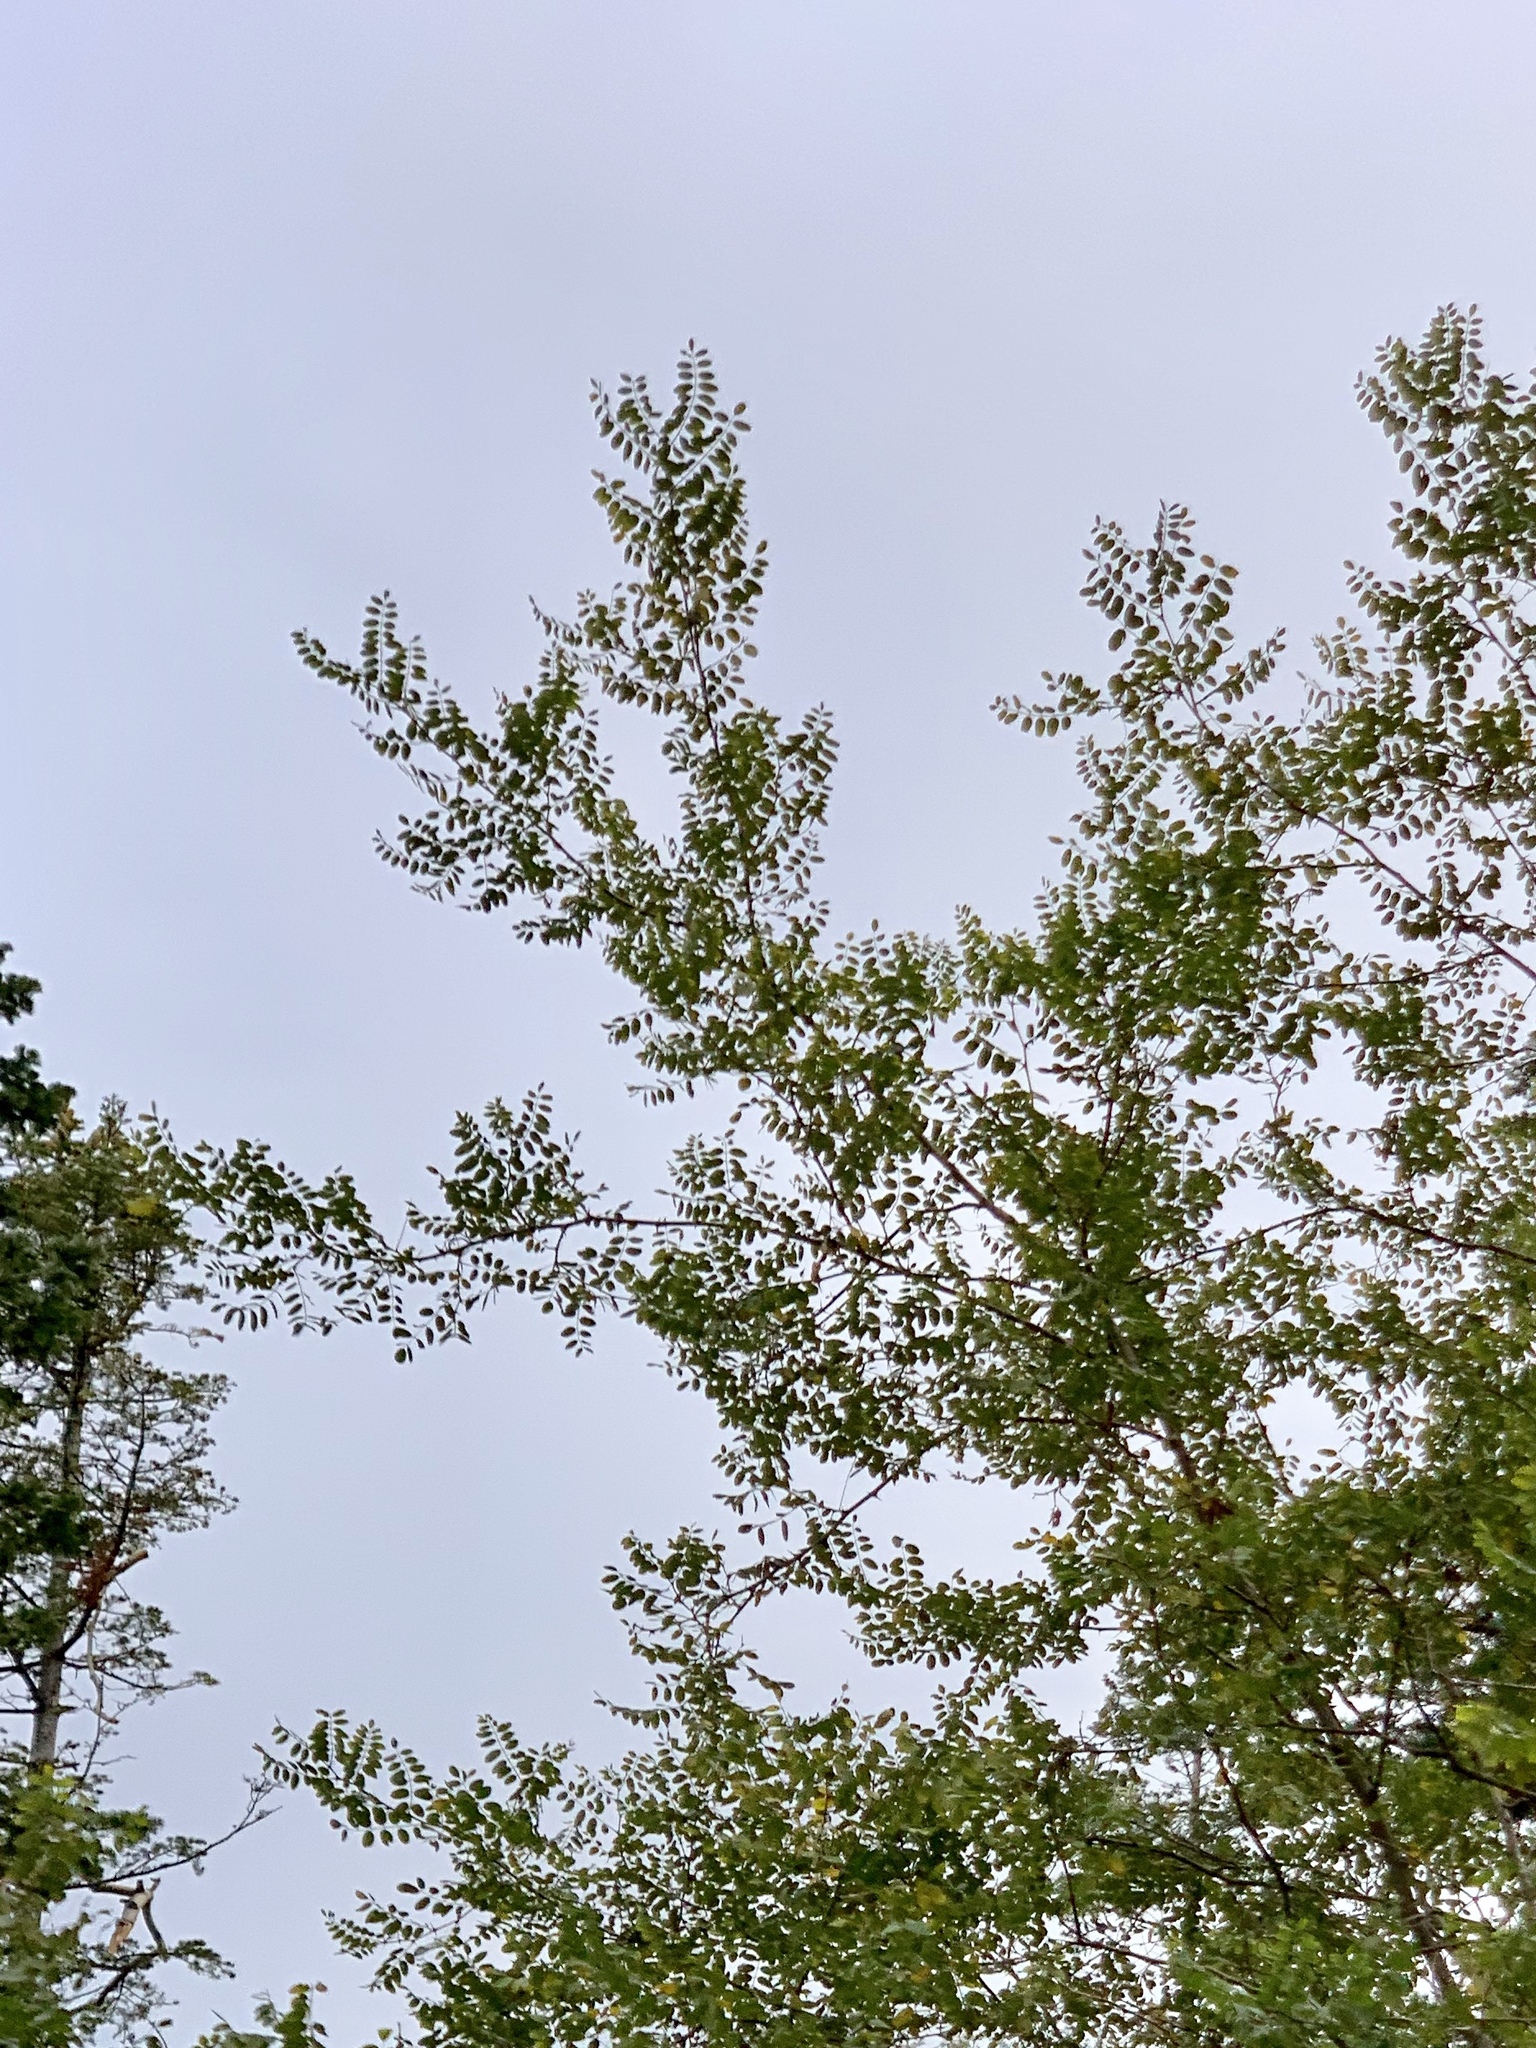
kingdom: Plantae
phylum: Tracheophyta
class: Magnoliopsida
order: Fabales
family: Fabaceae
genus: Robinia
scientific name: Robinia neomexicana
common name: New mexico locust
